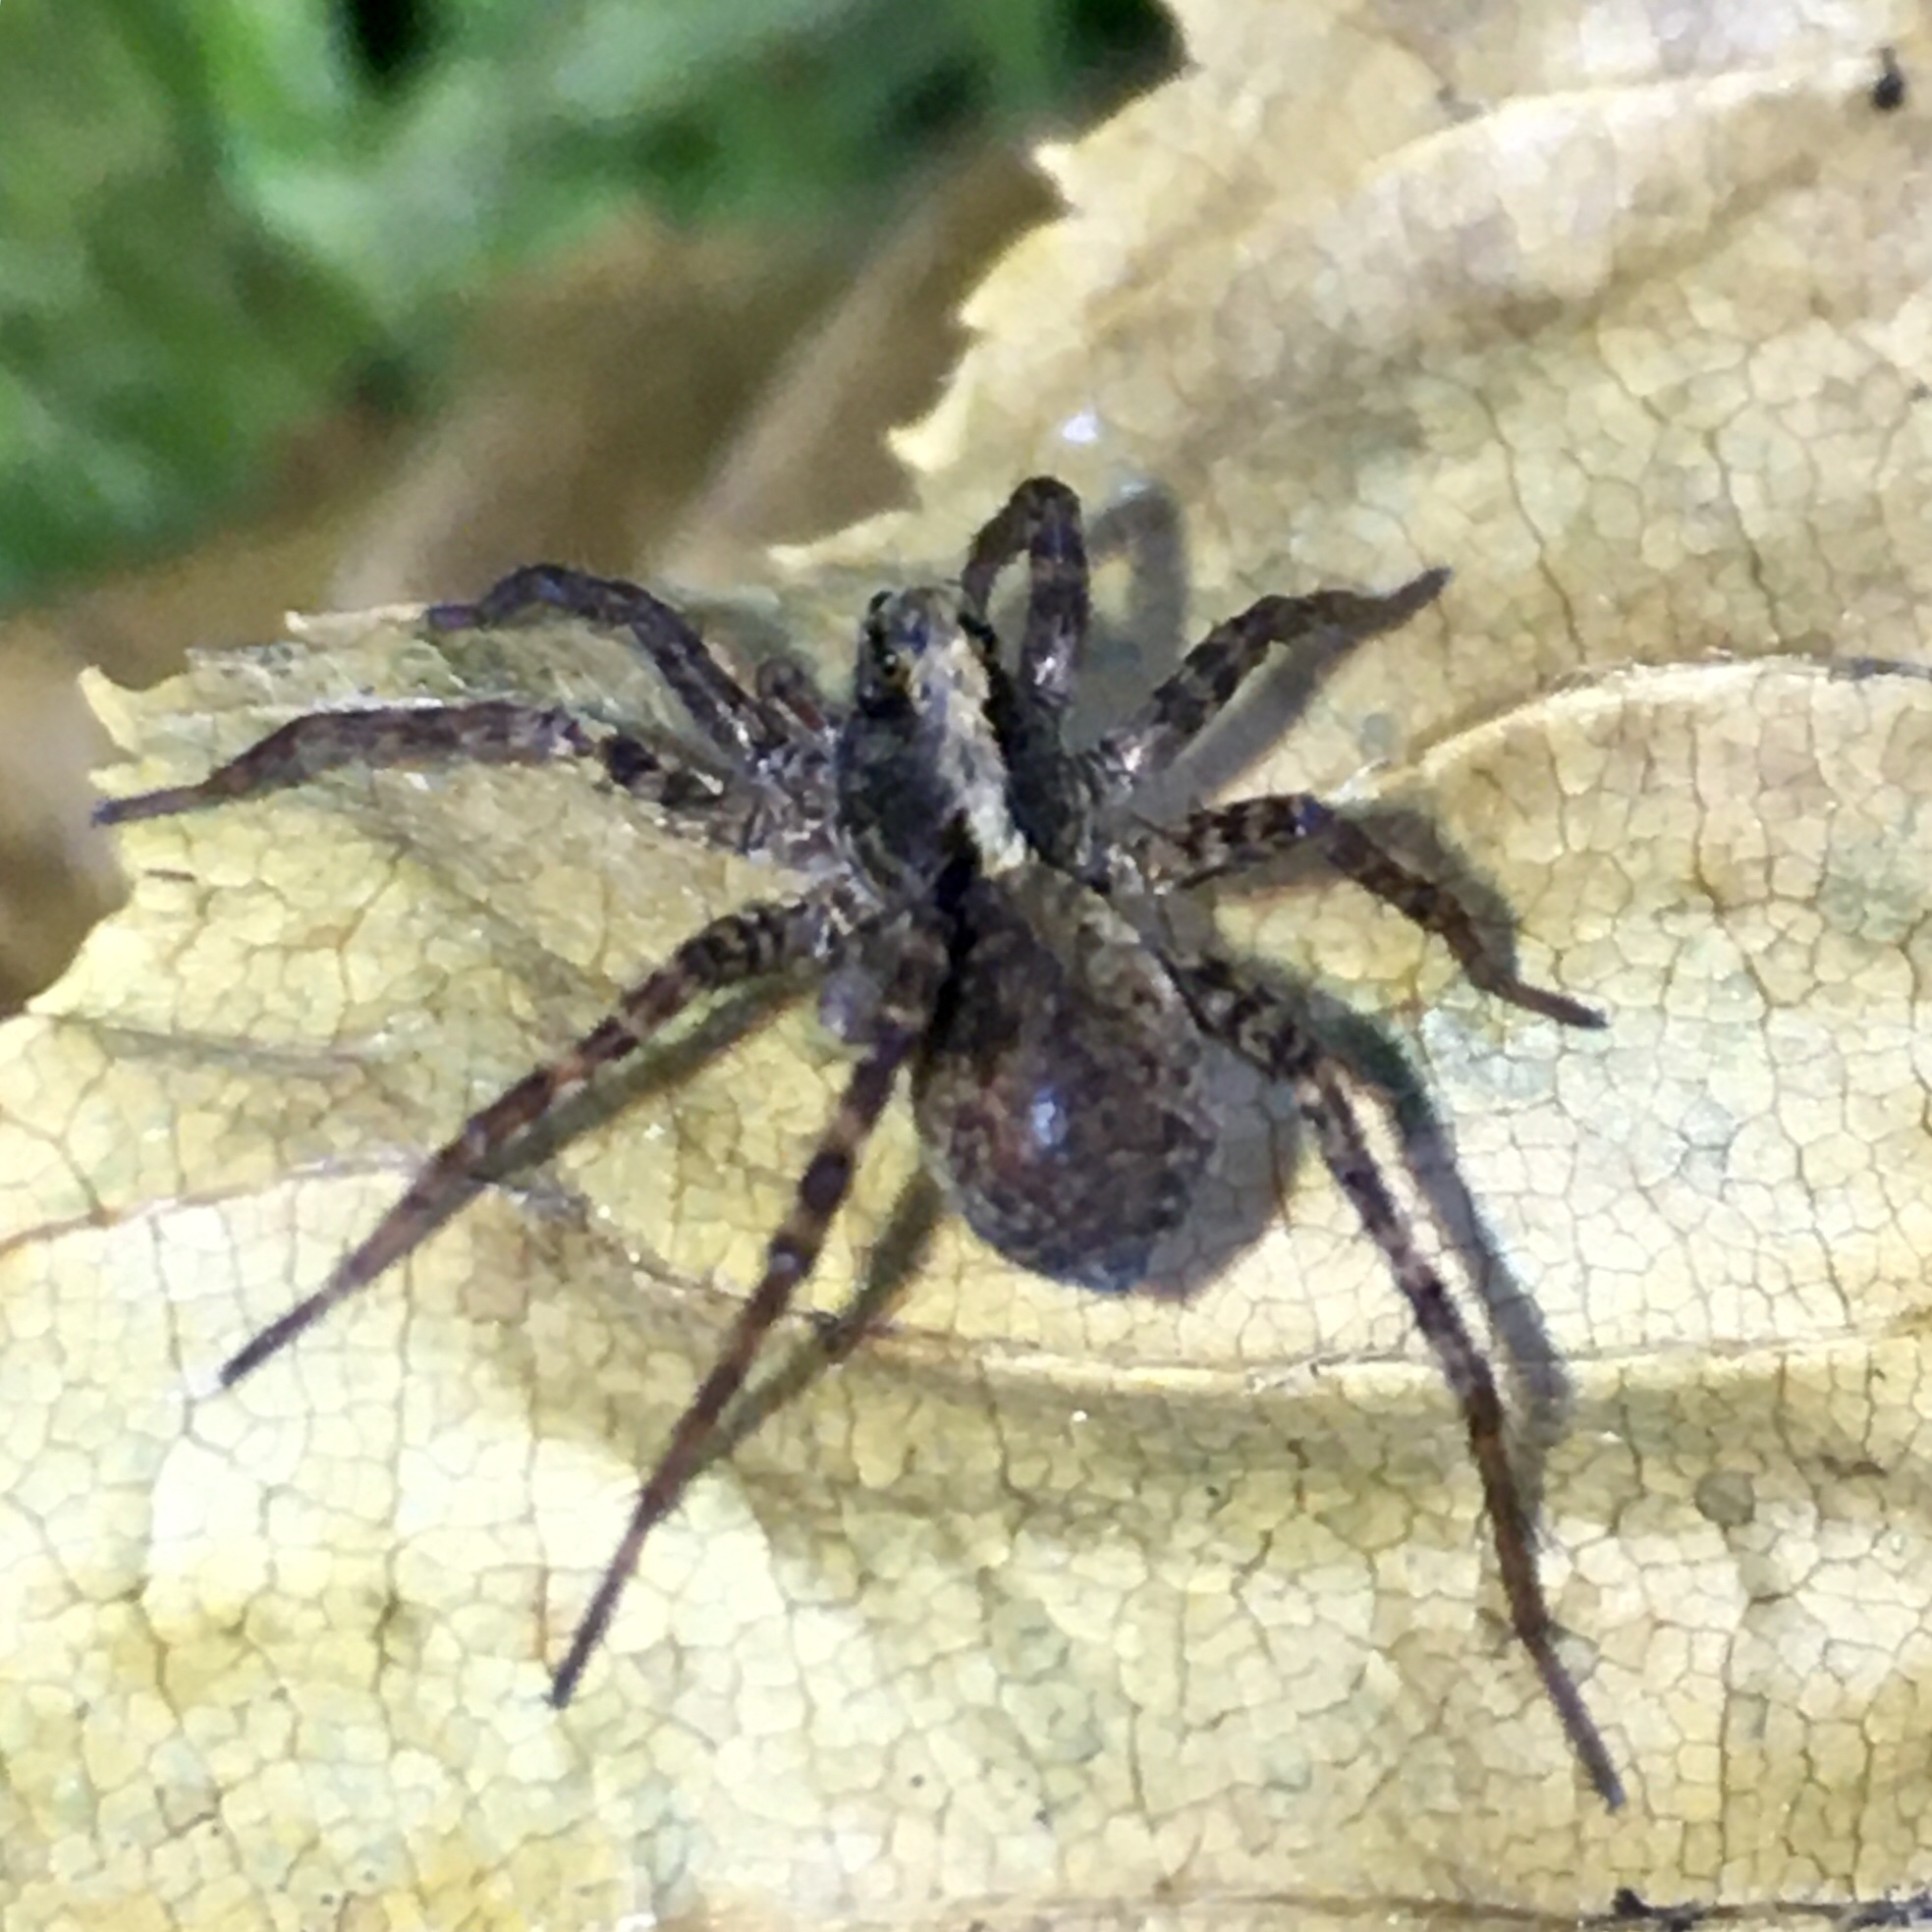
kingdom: Animalia
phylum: Arthropoda
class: Arachnida
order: Araneae
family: Lycosidae
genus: Pardosa
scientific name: Pardosa
